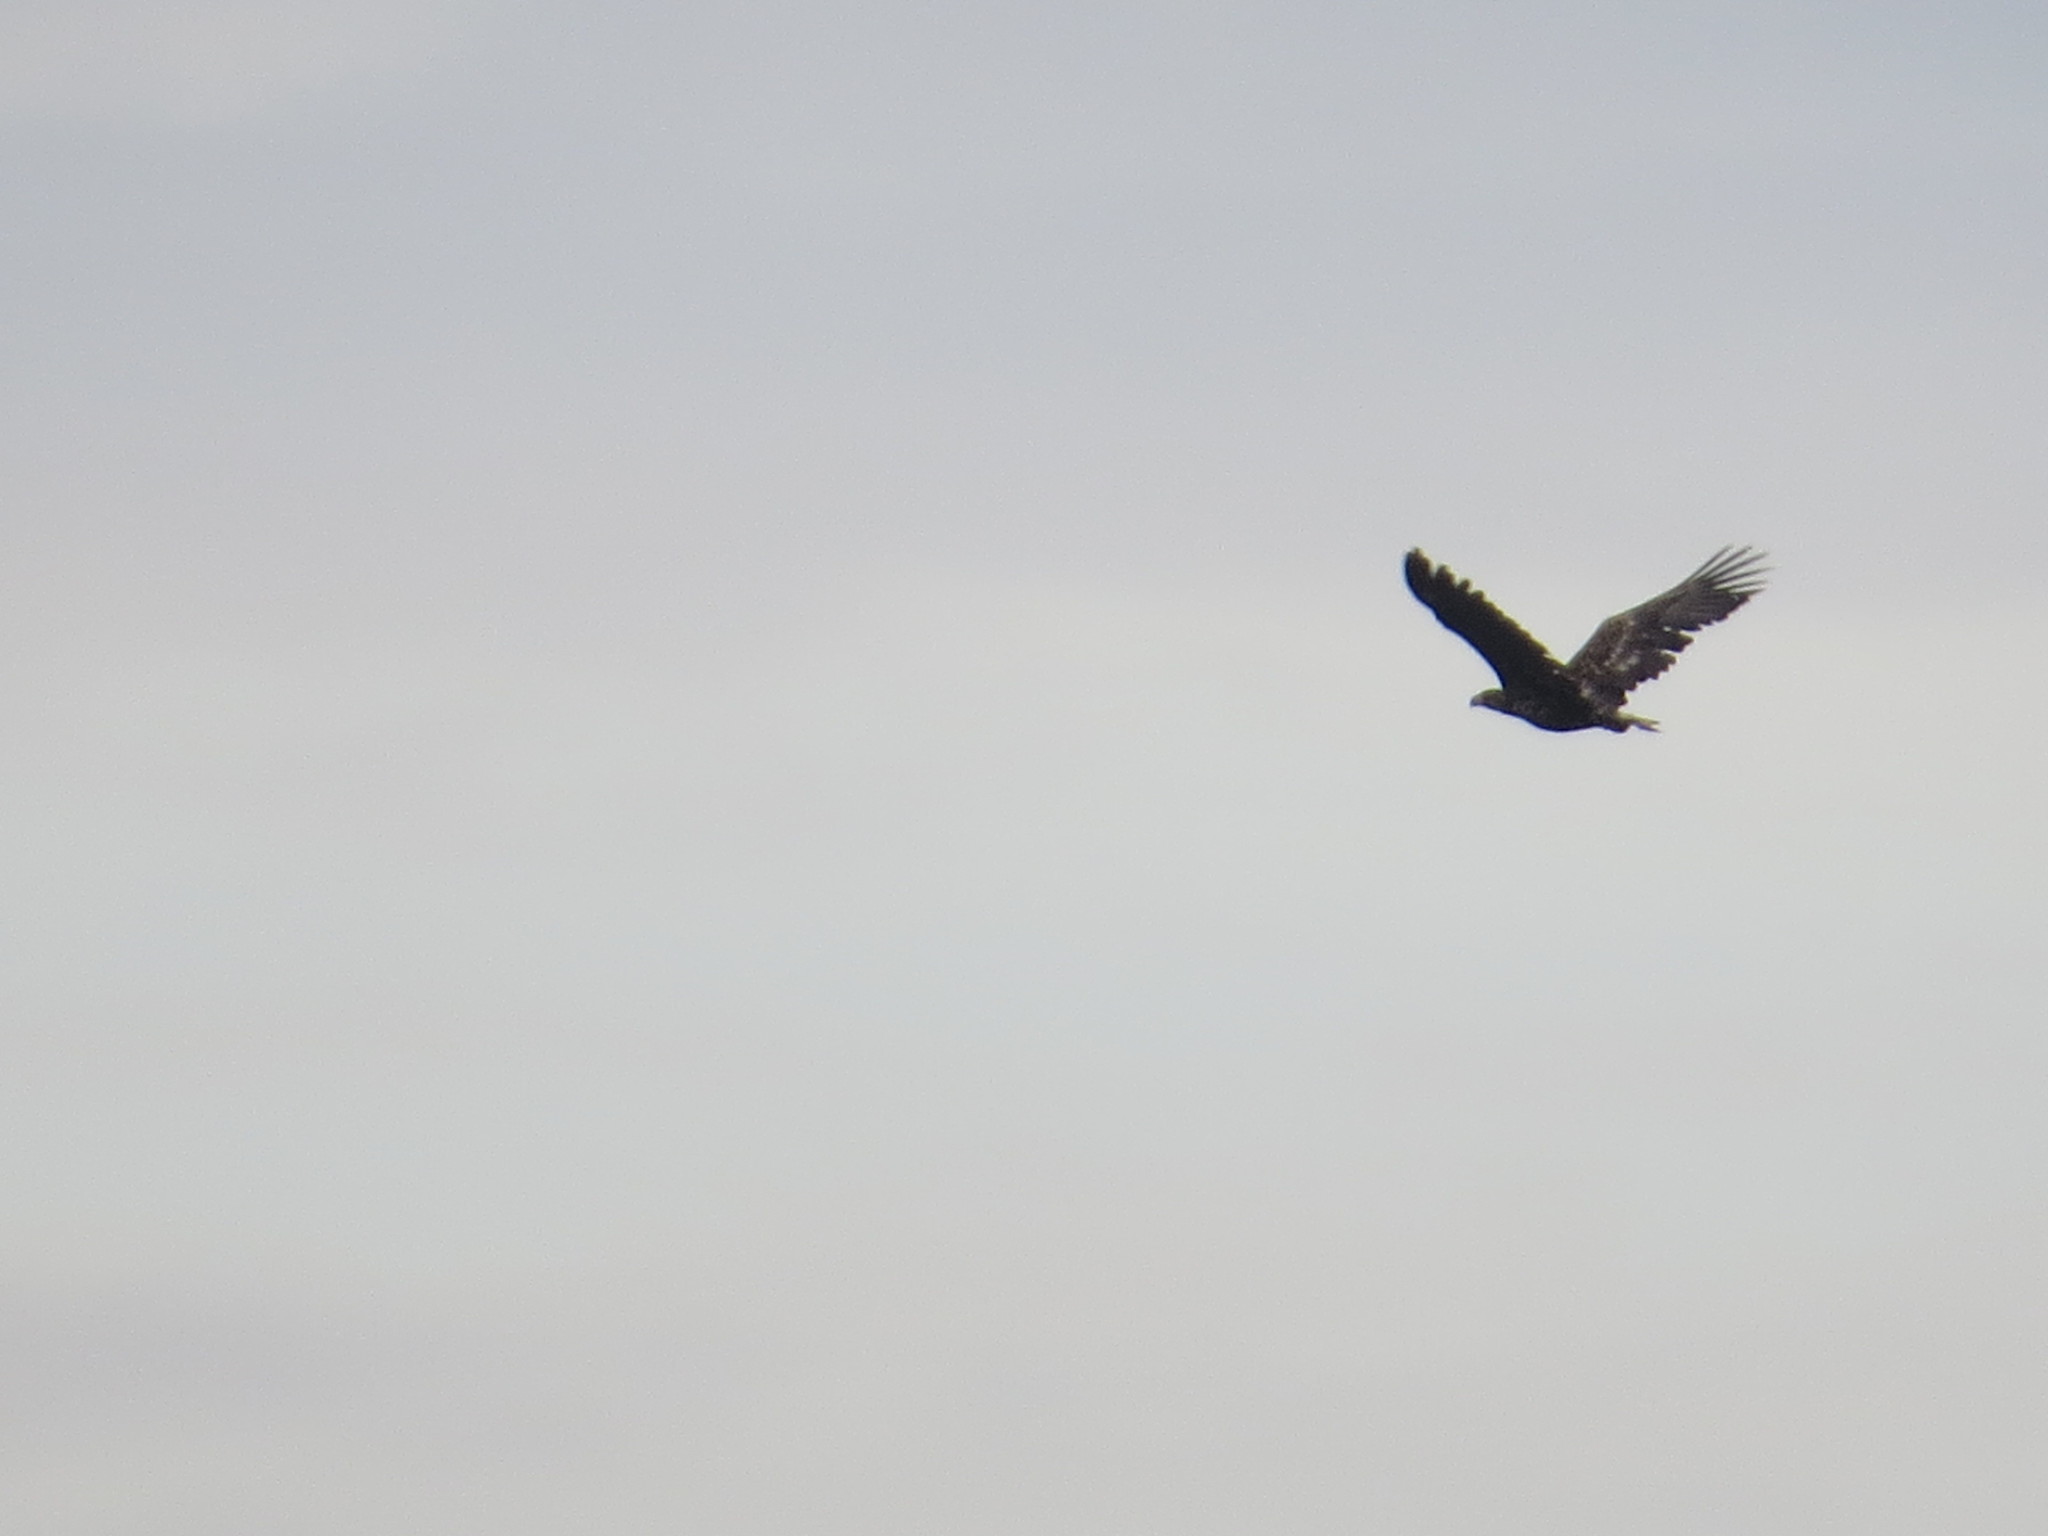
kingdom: Animalia
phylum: Chordata
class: Aves
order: Accipitriformes
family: Accipitridae
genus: Haliaeetus
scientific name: Haliaeetus albicilla
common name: White-tailed eagle
